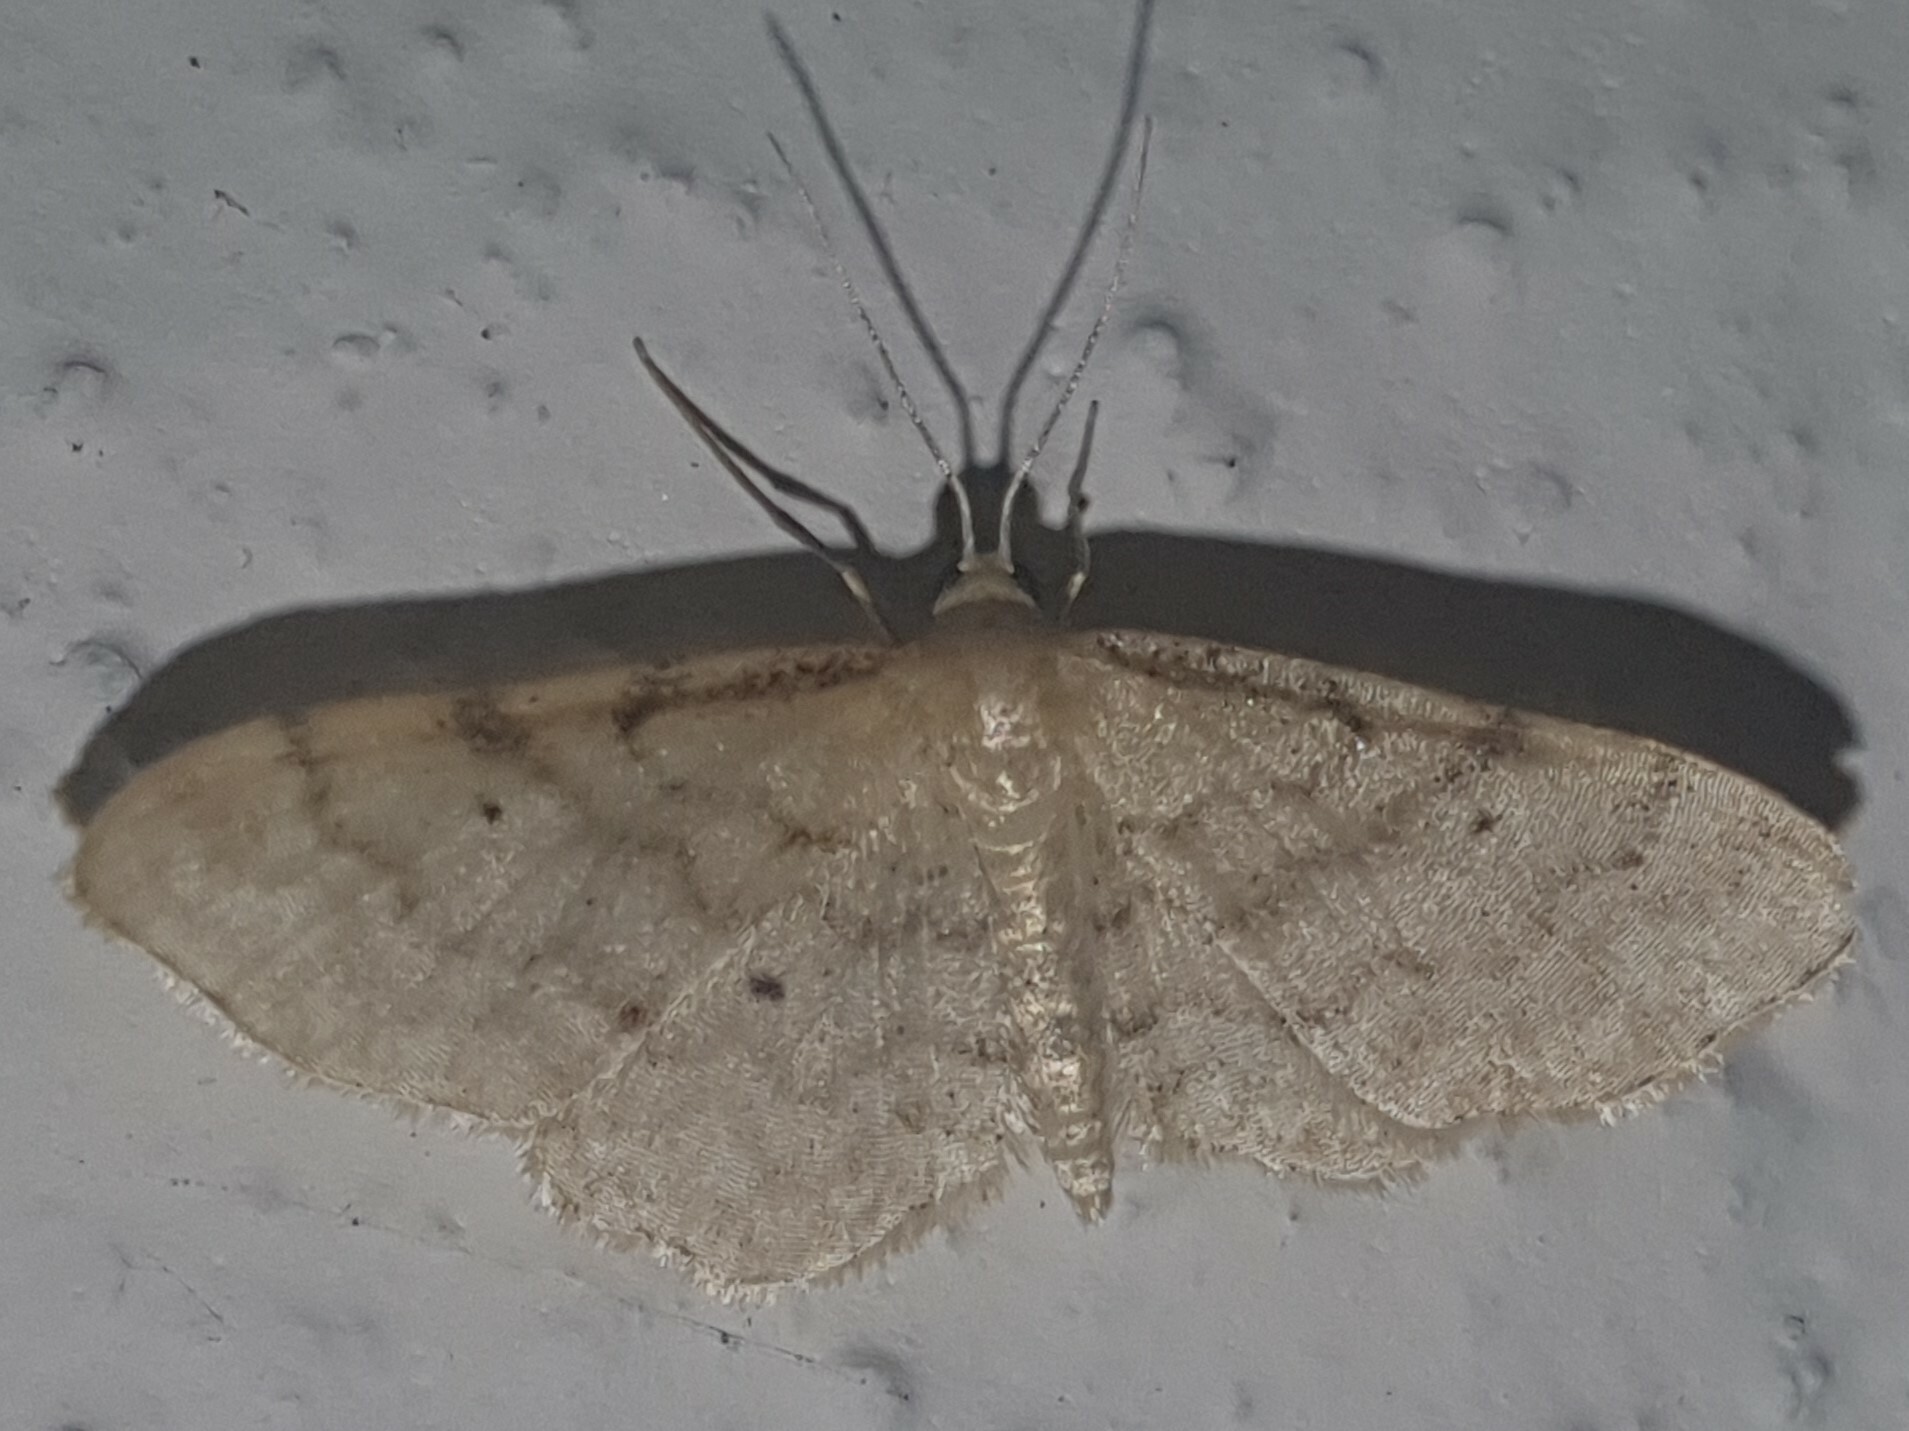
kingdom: Animalia
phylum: Arthropoda
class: Insecta
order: Lepidoptera
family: Geometridae
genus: Idaea
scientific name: Idaea fuscovenosa
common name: Dwarf cream wave
